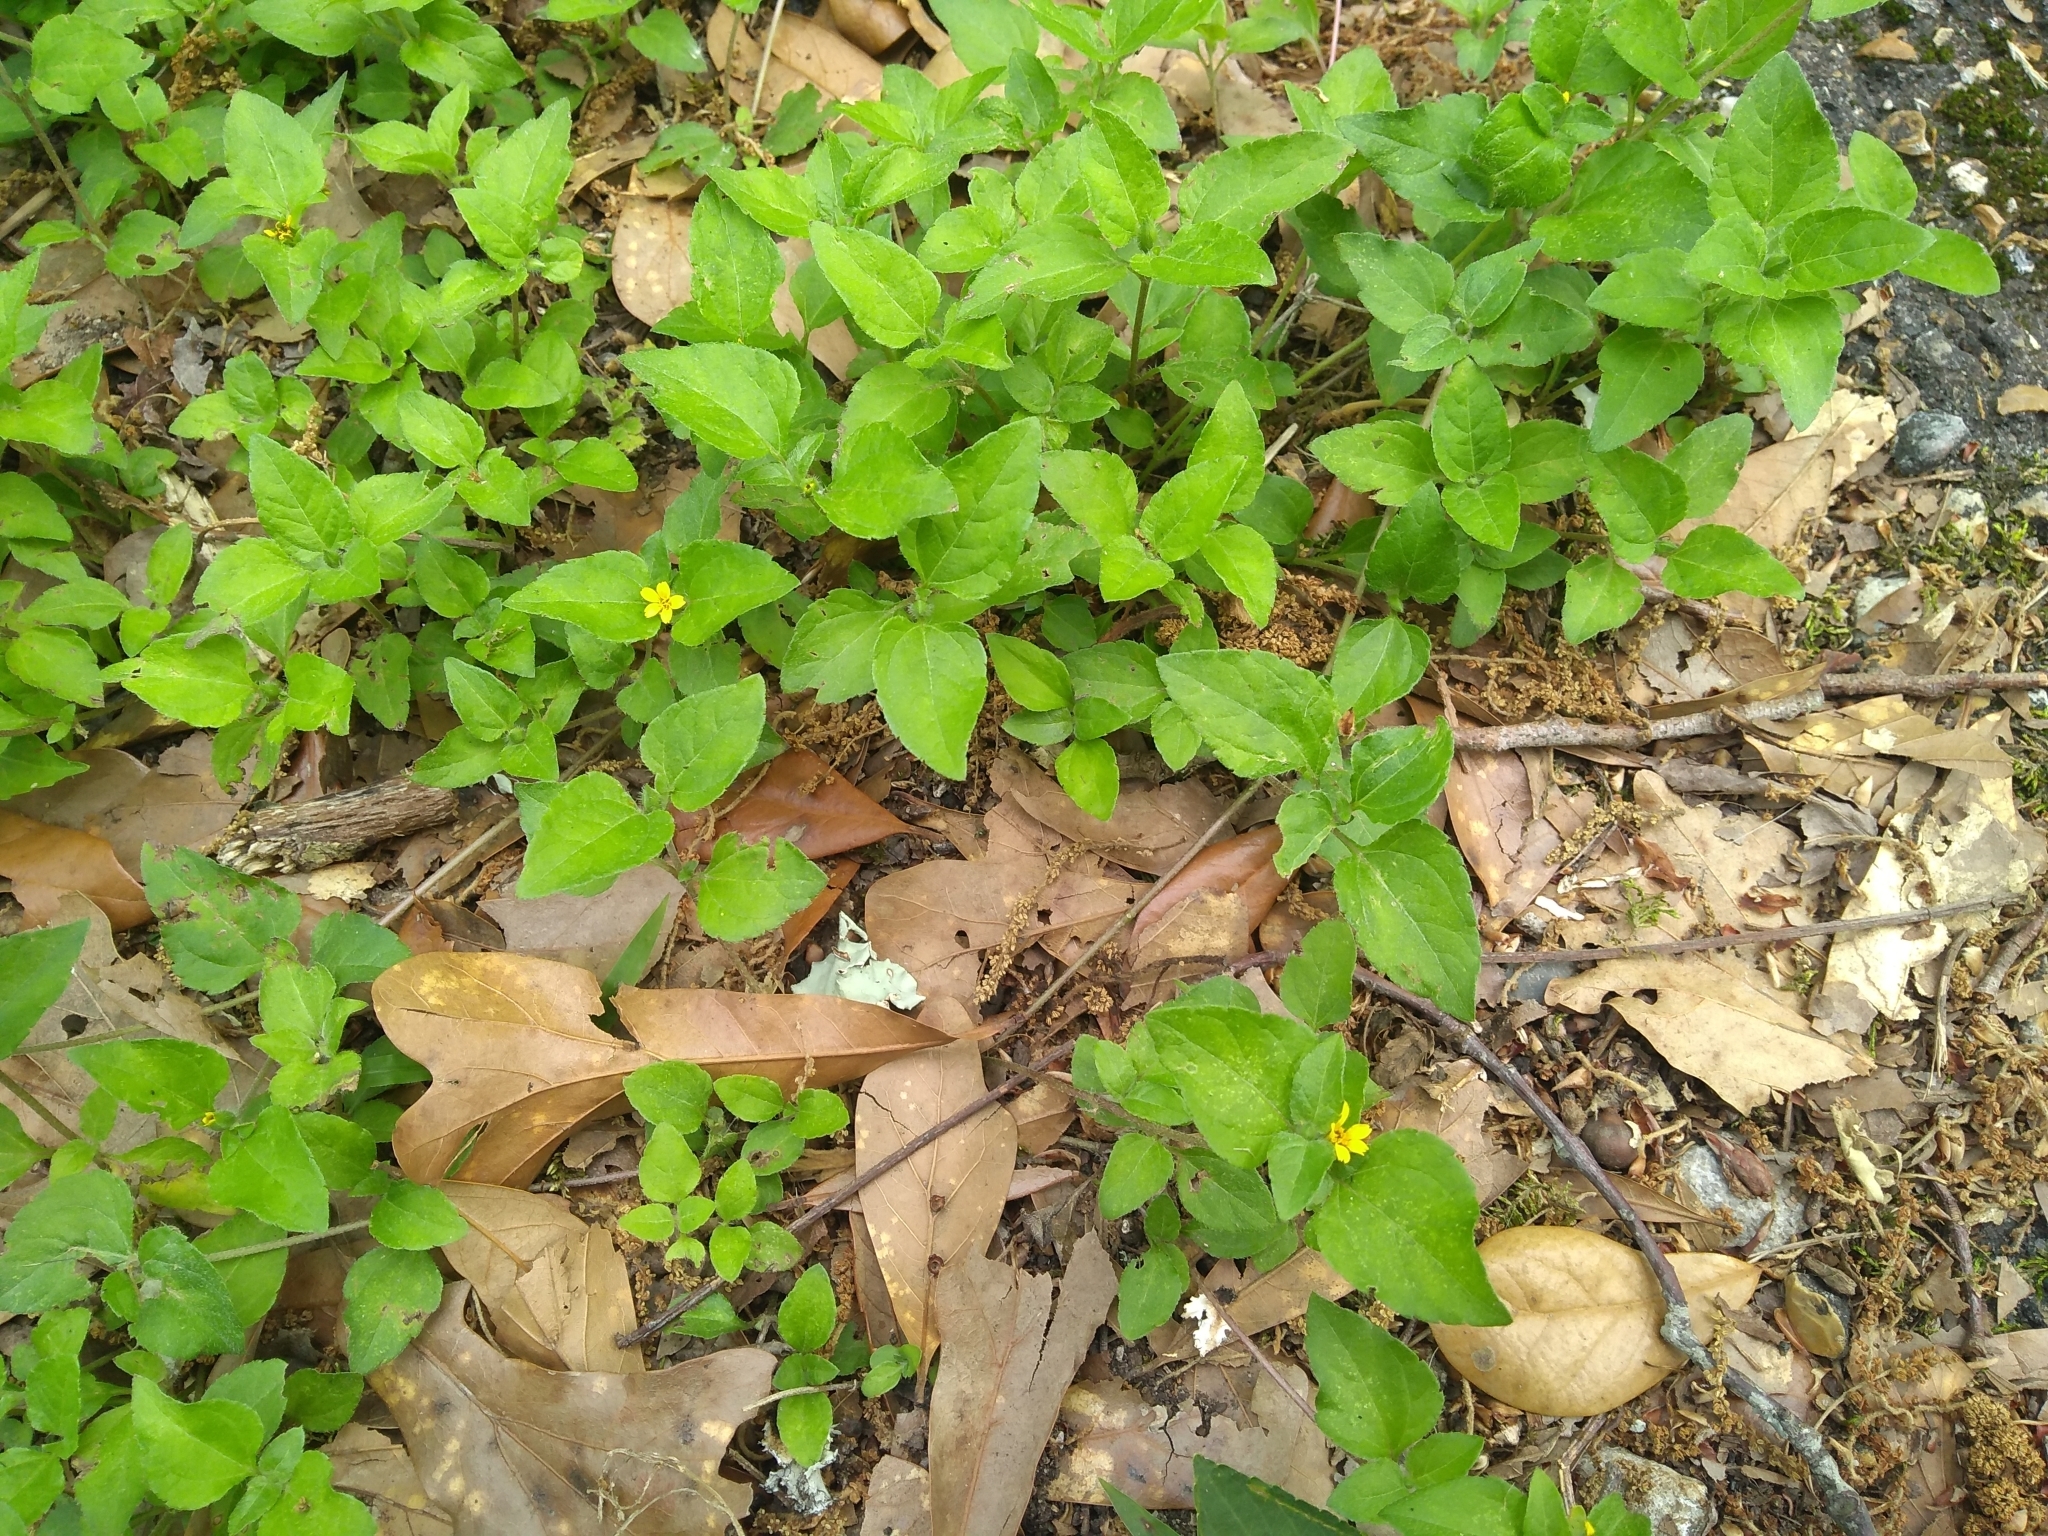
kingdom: Plantae
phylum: Tracheophyta
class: Magnoliopsida
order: Asterales
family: Asteraceae
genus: Calyptocarpus
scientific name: Calyptocarpus vialis
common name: Straggler daisy
